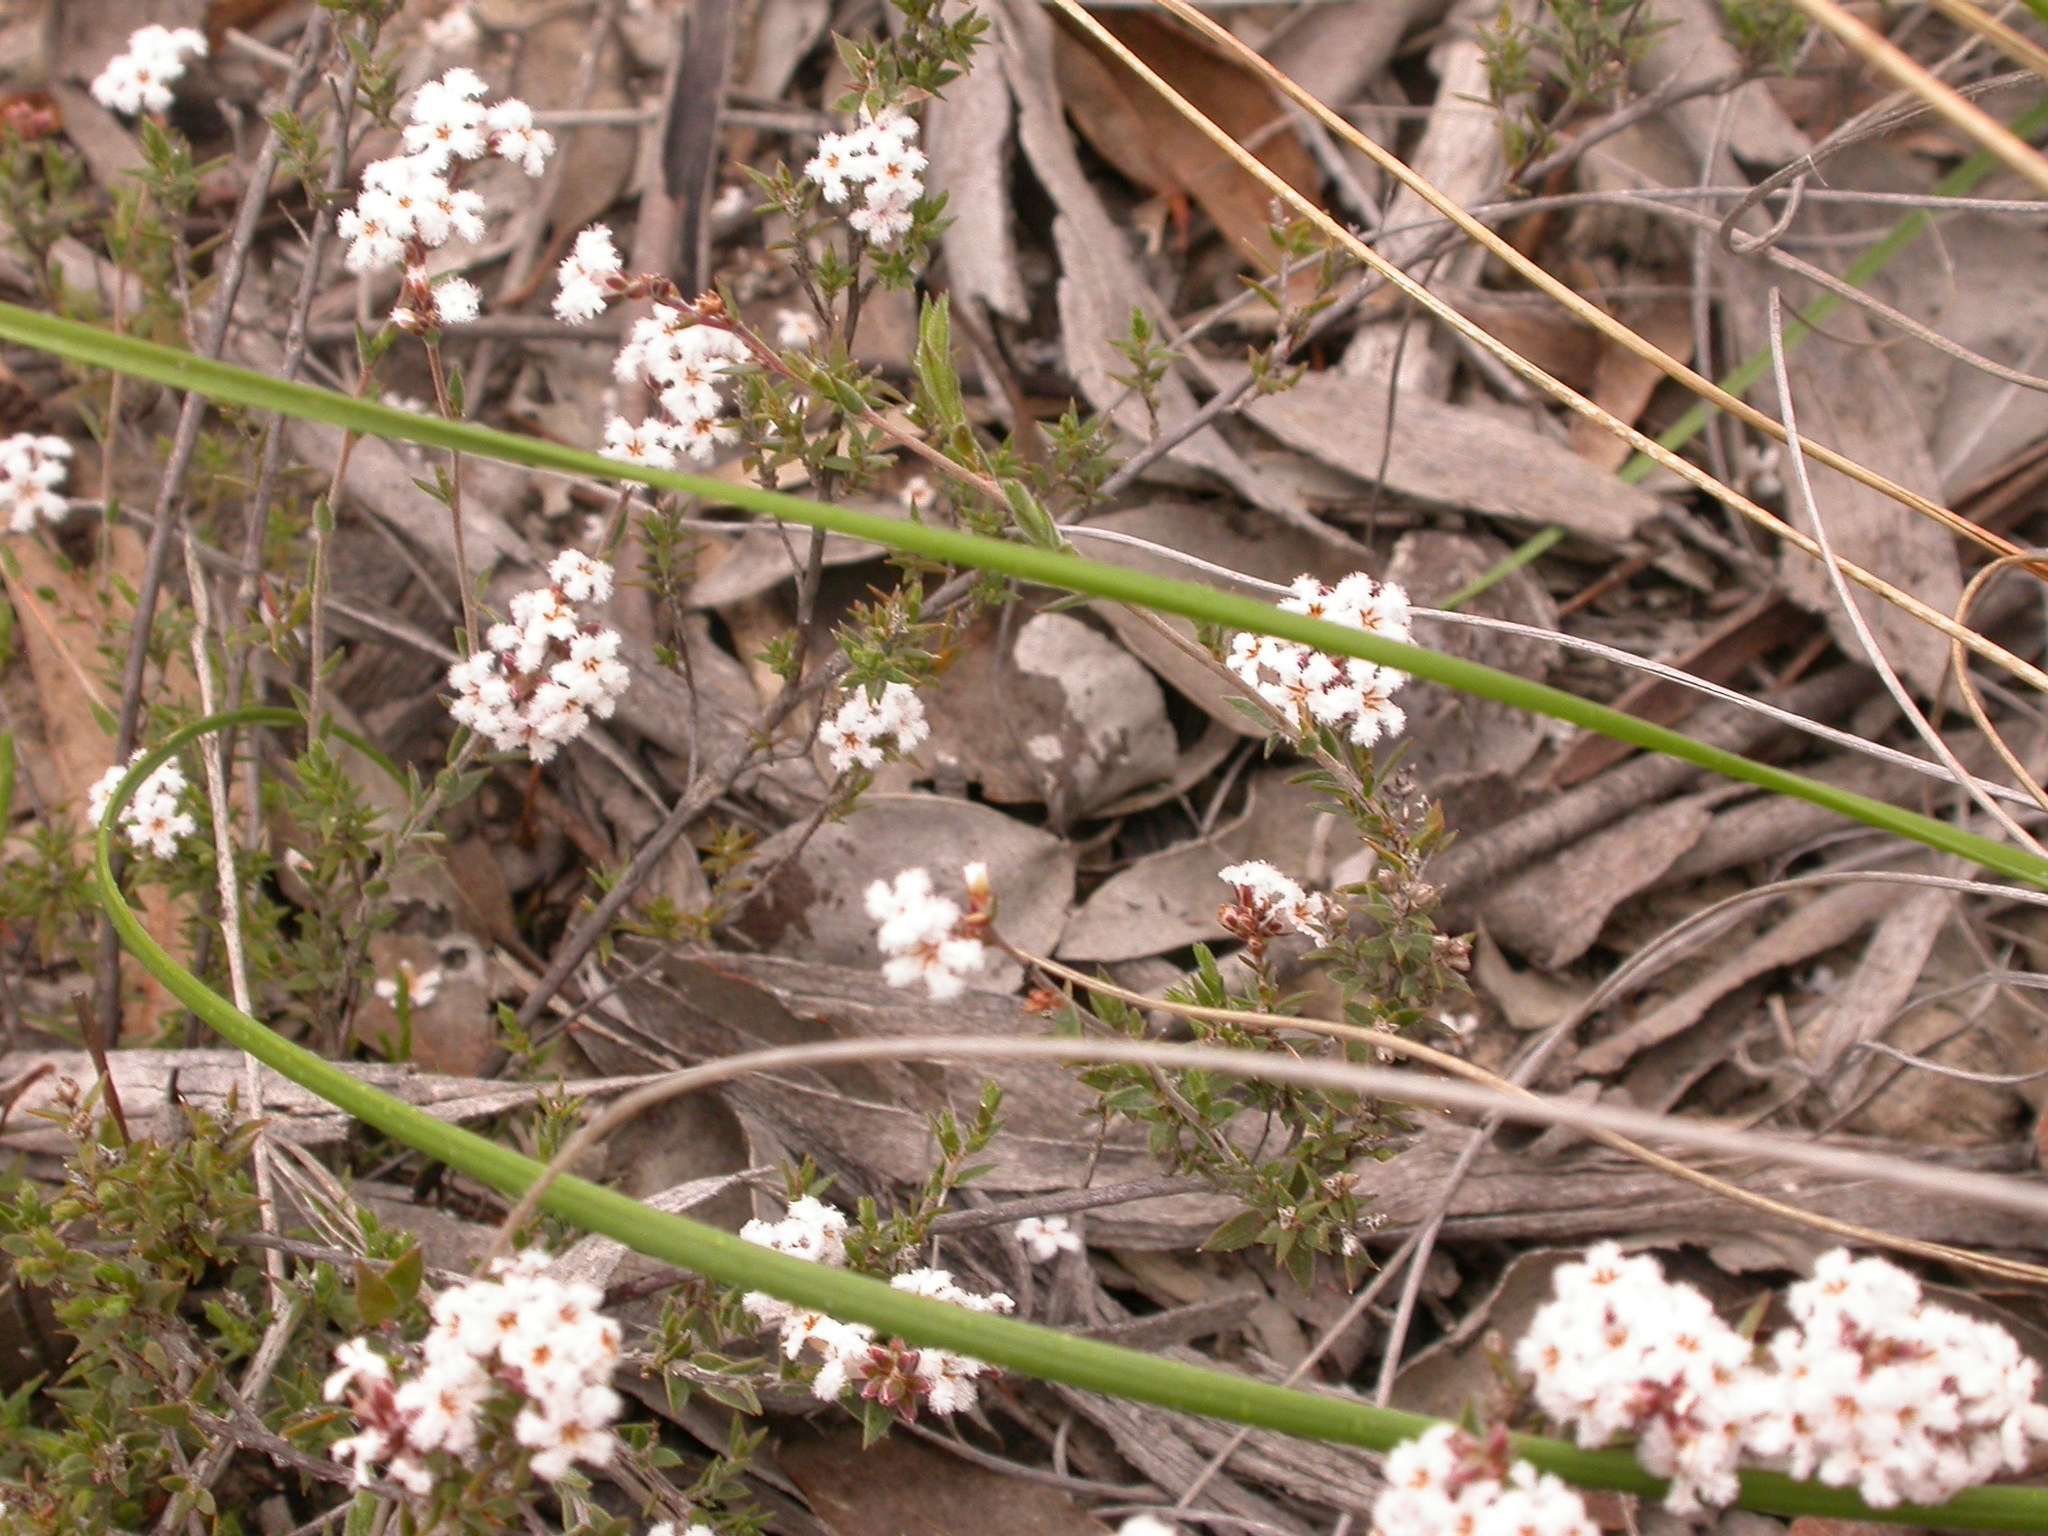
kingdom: Plantae
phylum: Tracheophyta
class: Magnoliopsida
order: Ericales
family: Ericaceae
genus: Leucopogon
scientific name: Leucopogon microphyllus
